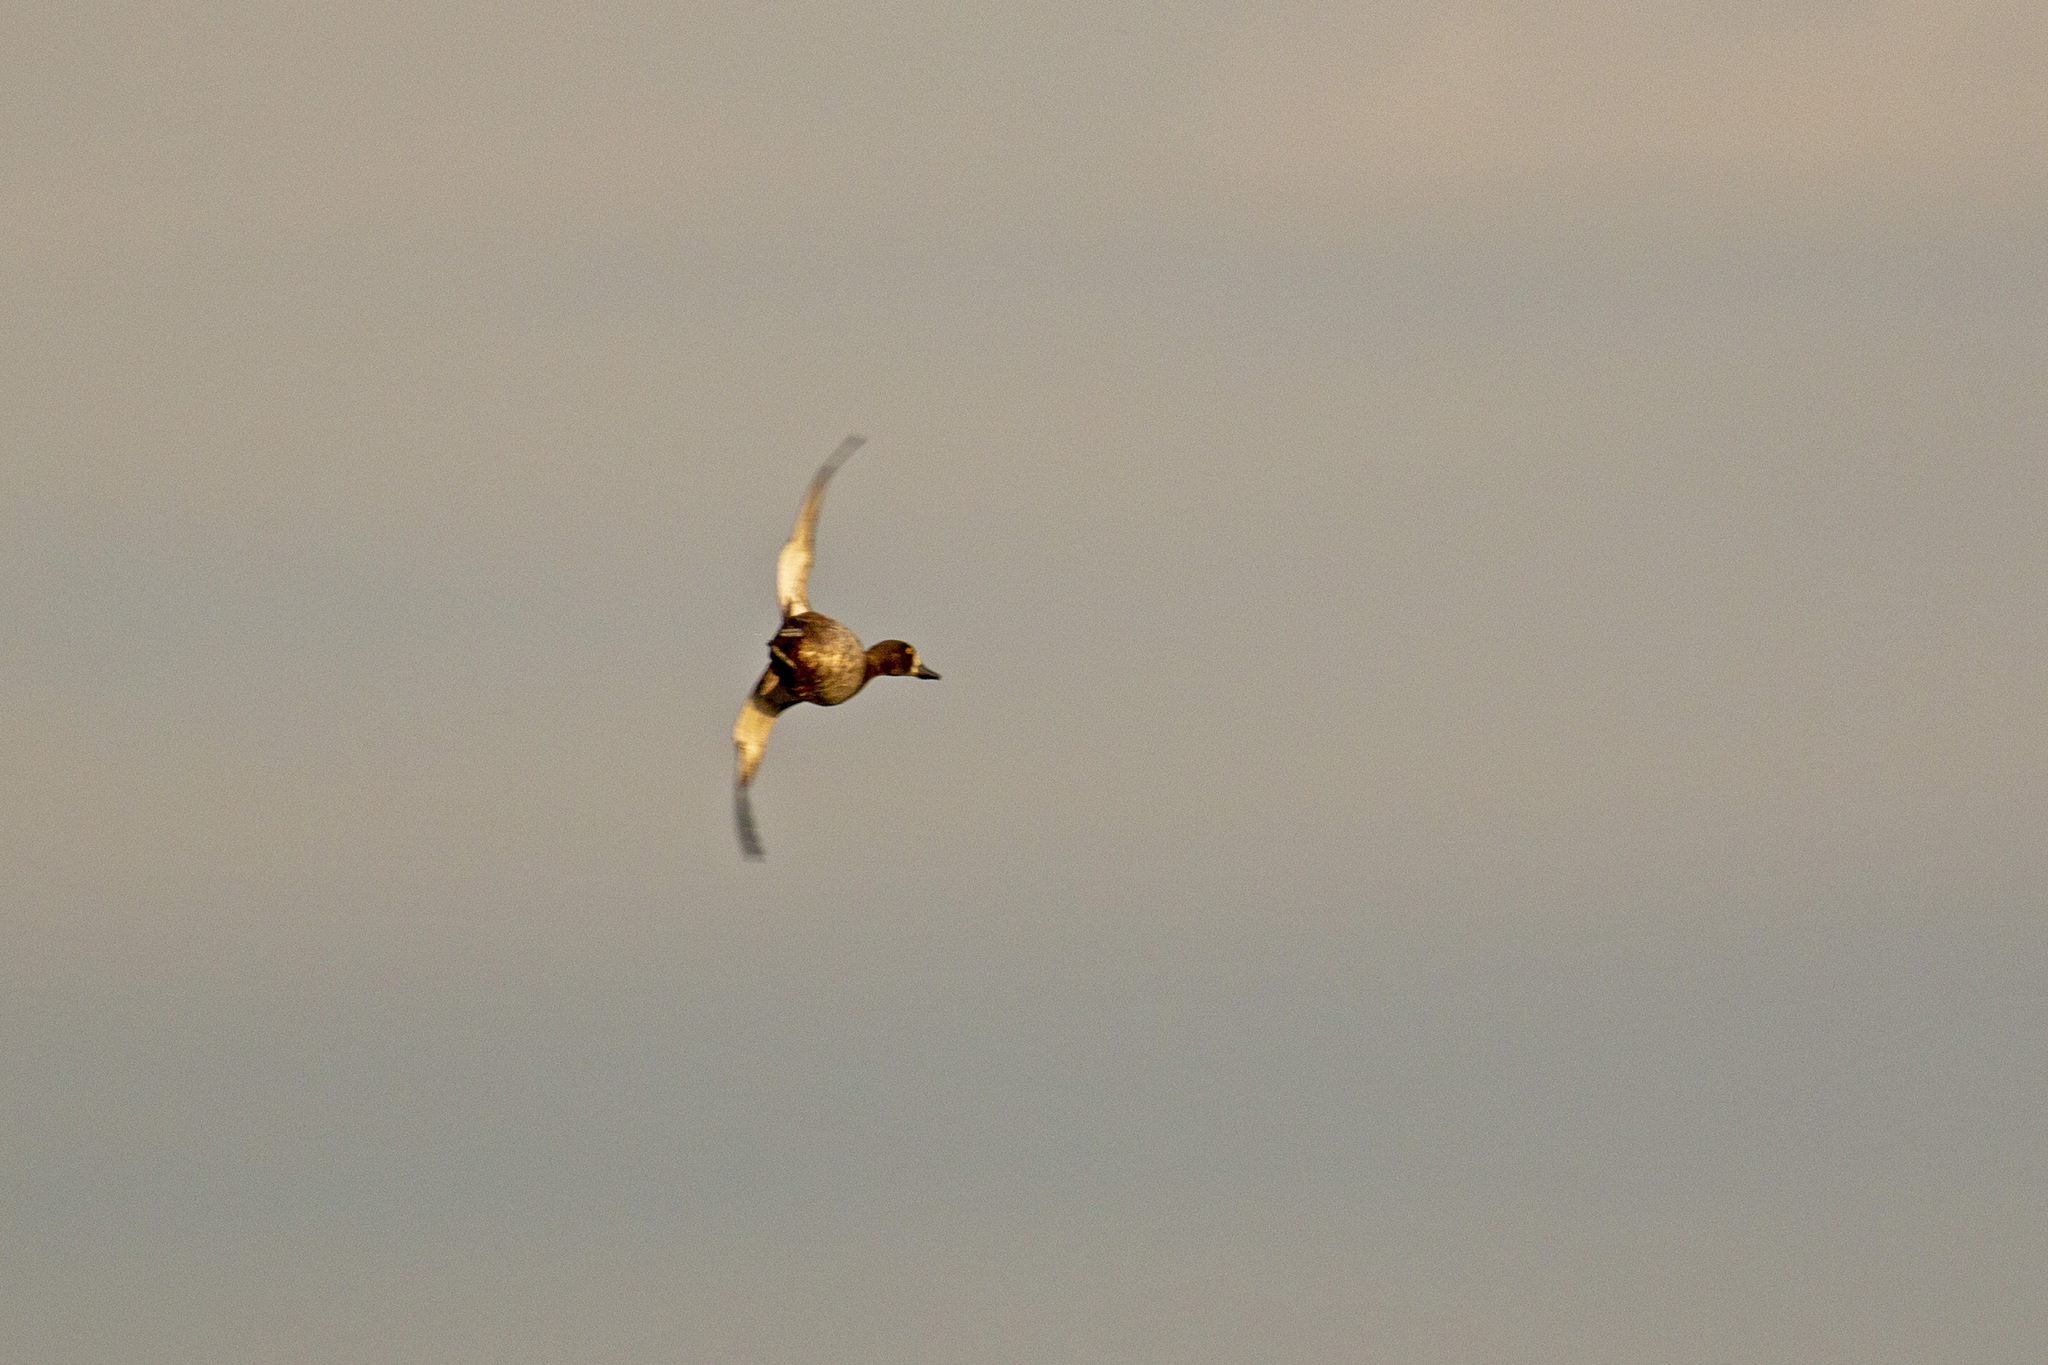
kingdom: Animalia
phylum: Chordata
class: Aves
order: Anseriformes
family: Anatidae
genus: Aythya
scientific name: Aythya fuligula
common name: Tufted duck
